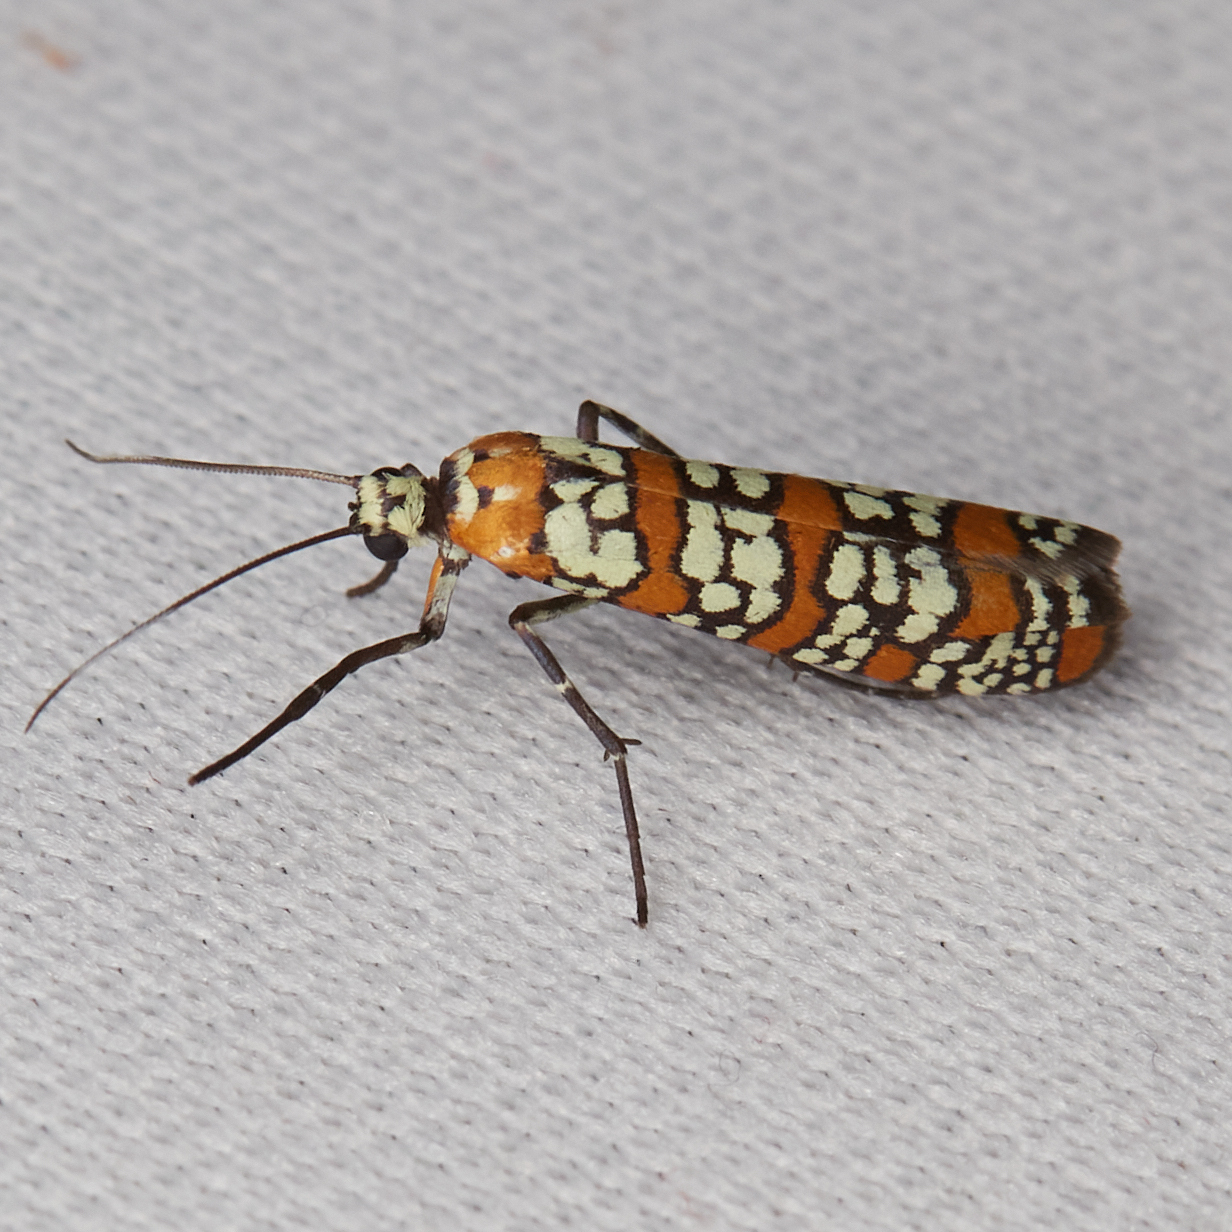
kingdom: Animalia
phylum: Arthropoda
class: Insecta
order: Lepidoptera
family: Attevidae
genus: Atteva
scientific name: Atteva punctella
